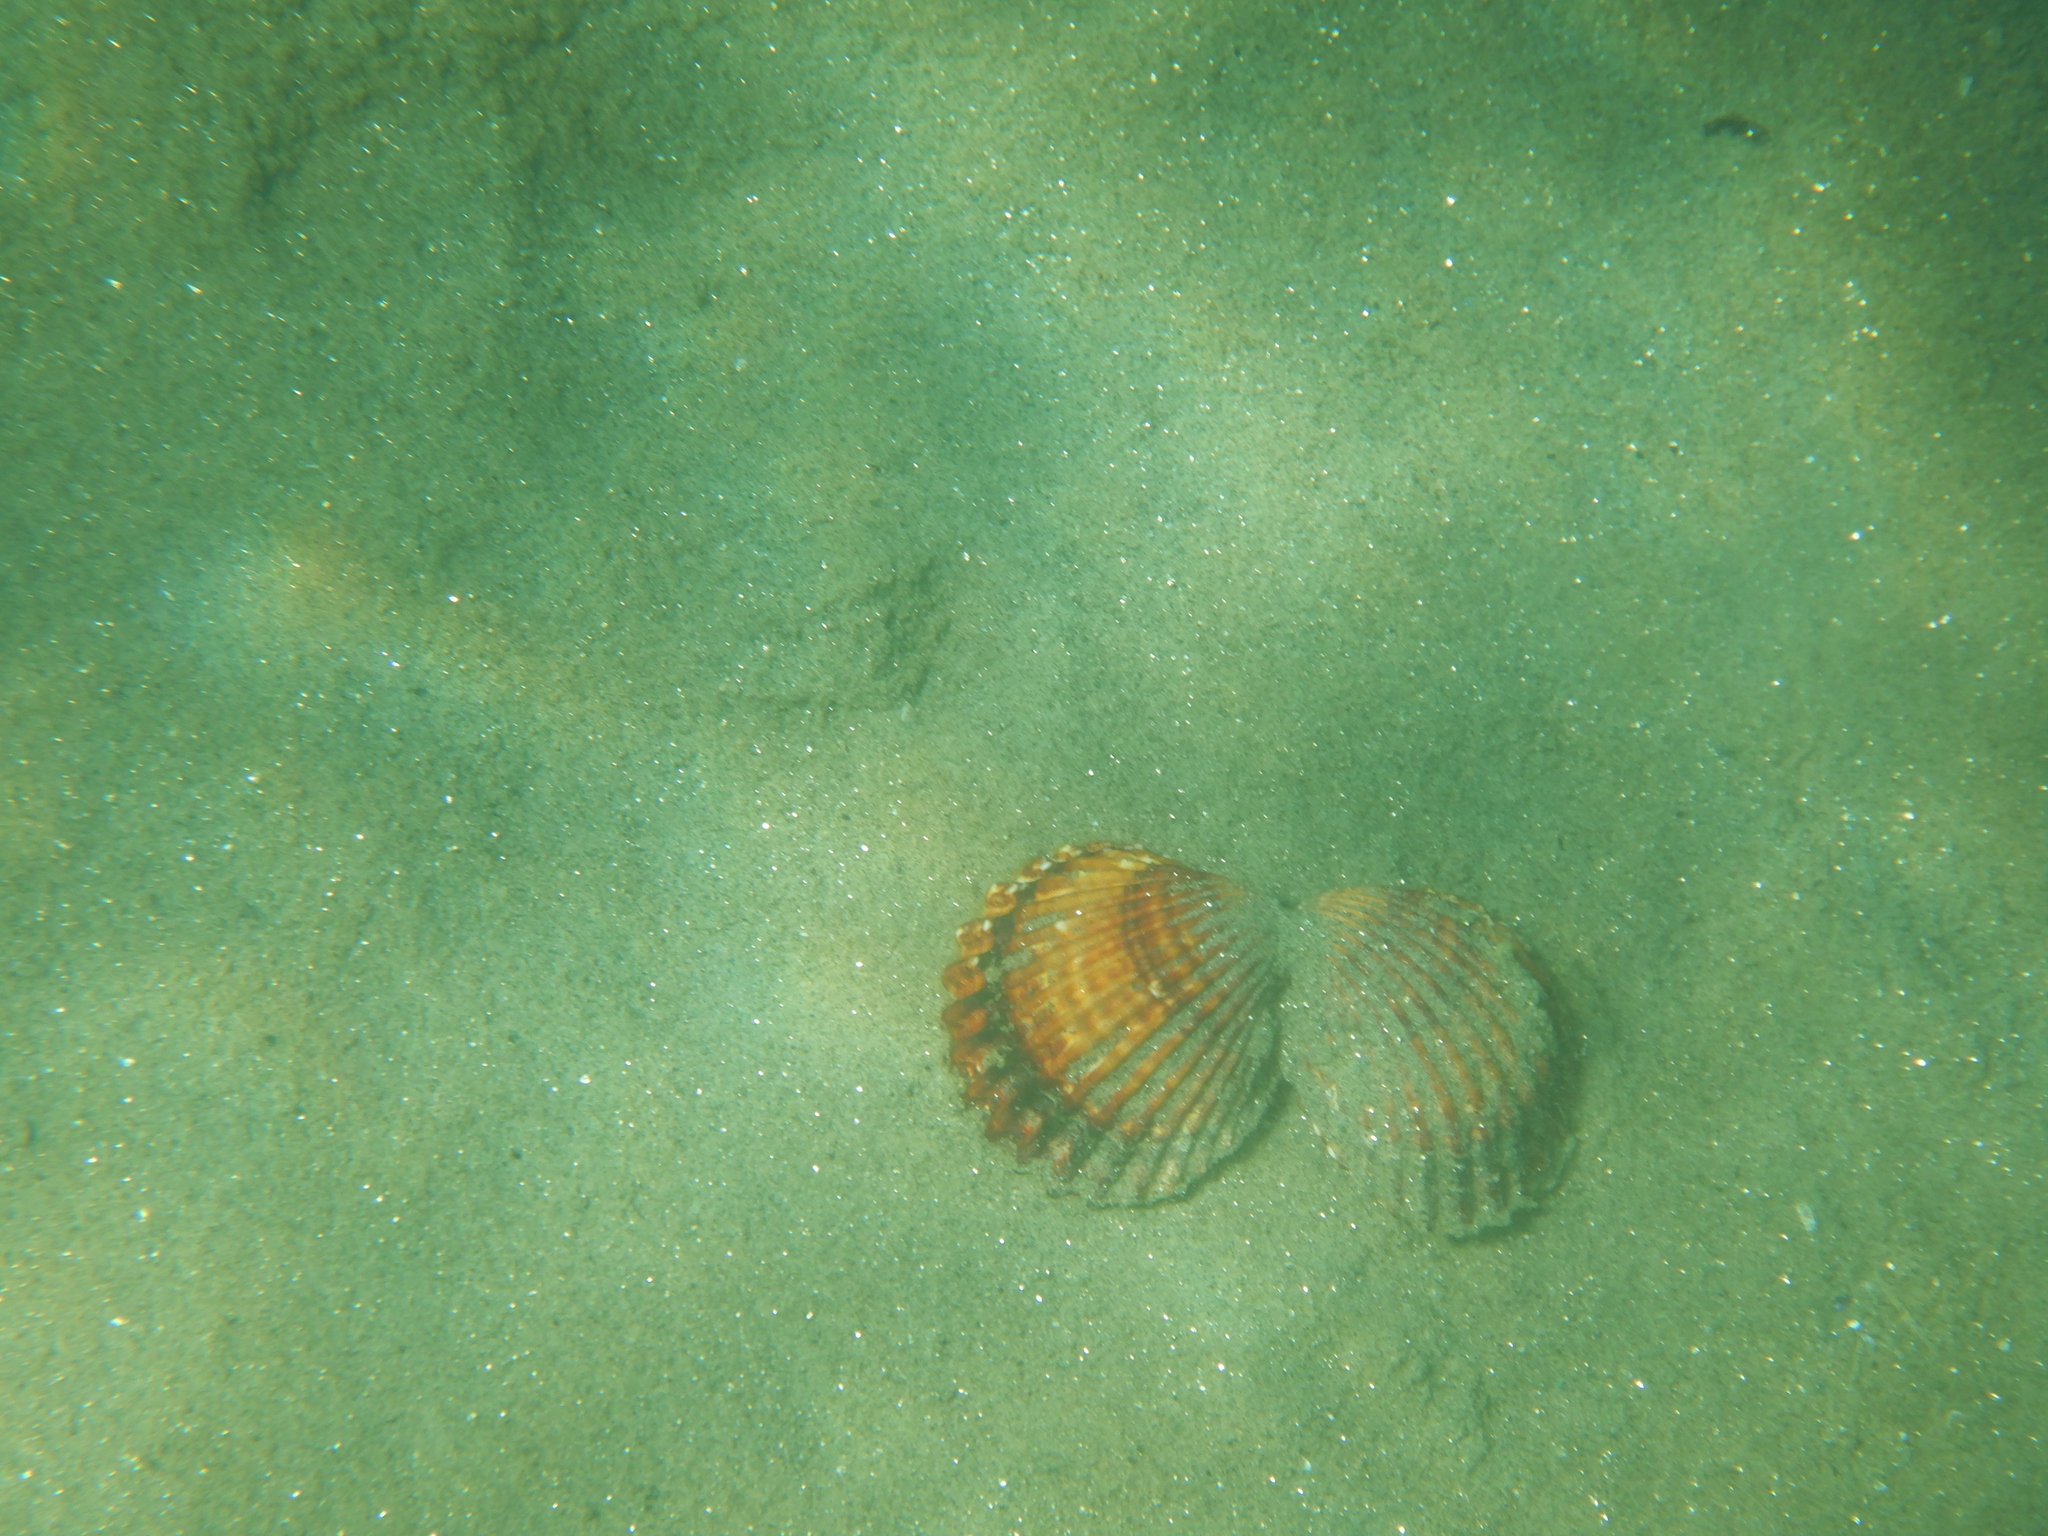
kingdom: Animalia
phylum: Mollusca
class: Bivalvia
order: Cardiida
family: Cardiidae
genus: Acanthocardia
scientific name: Acanthocardia tuberculata
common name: Rough cockle
